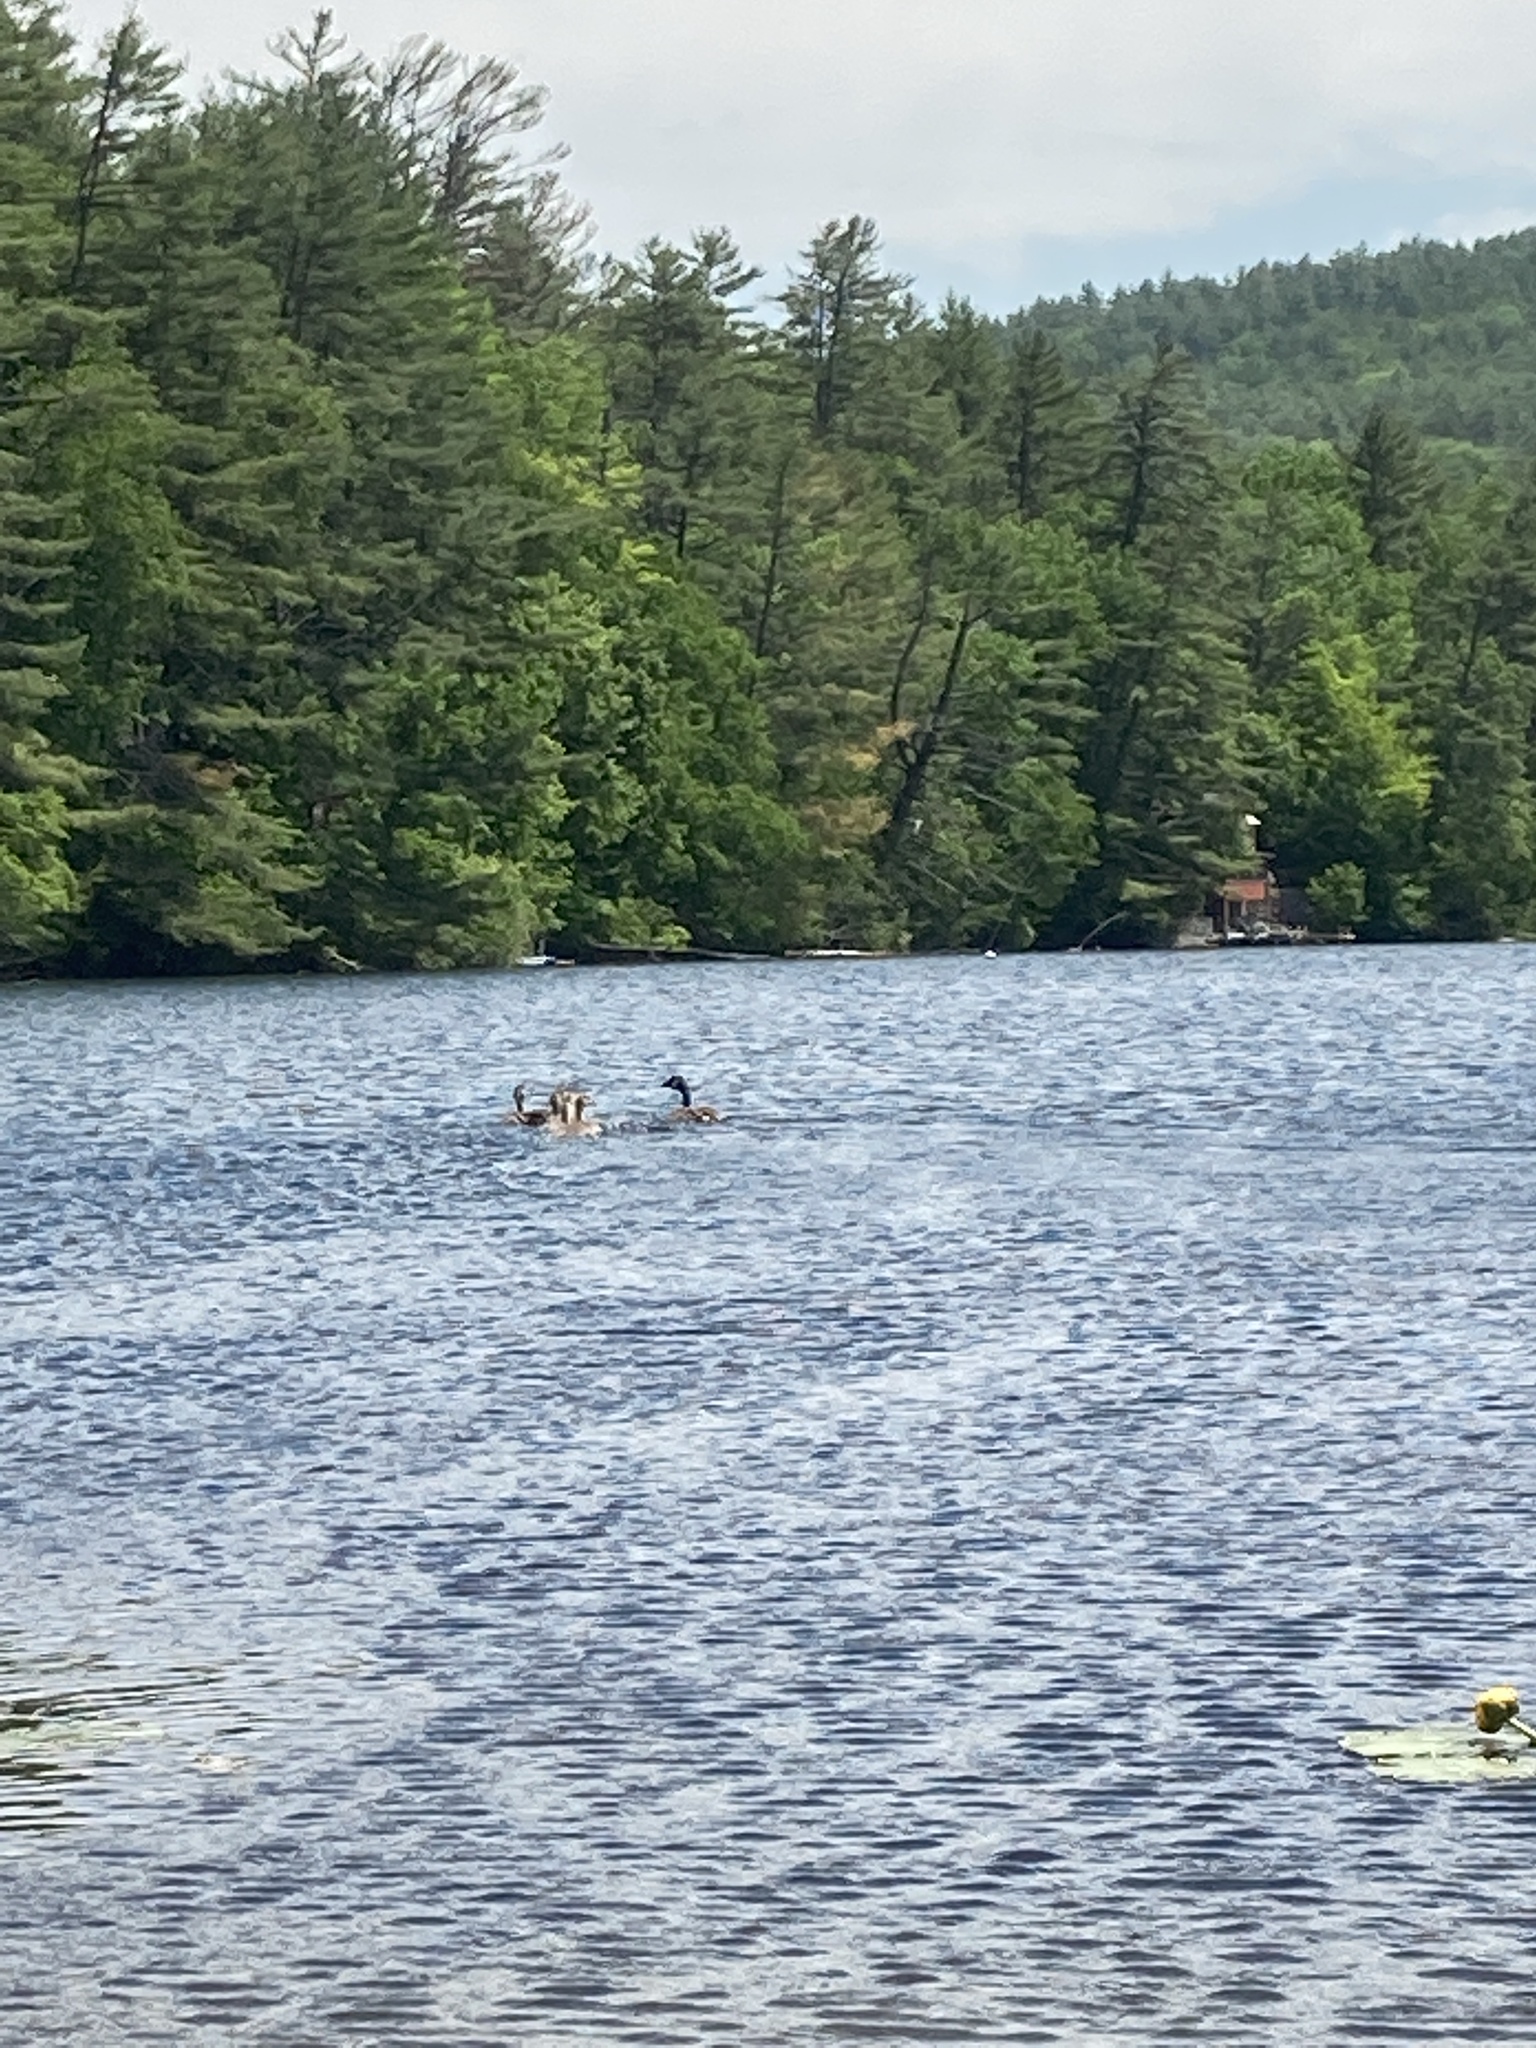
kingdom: Animalia
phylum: Chordata
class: Aves
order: Anseriformes
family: Anatidae
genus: Branta
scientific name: Branta canadensis
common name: Canada goose
